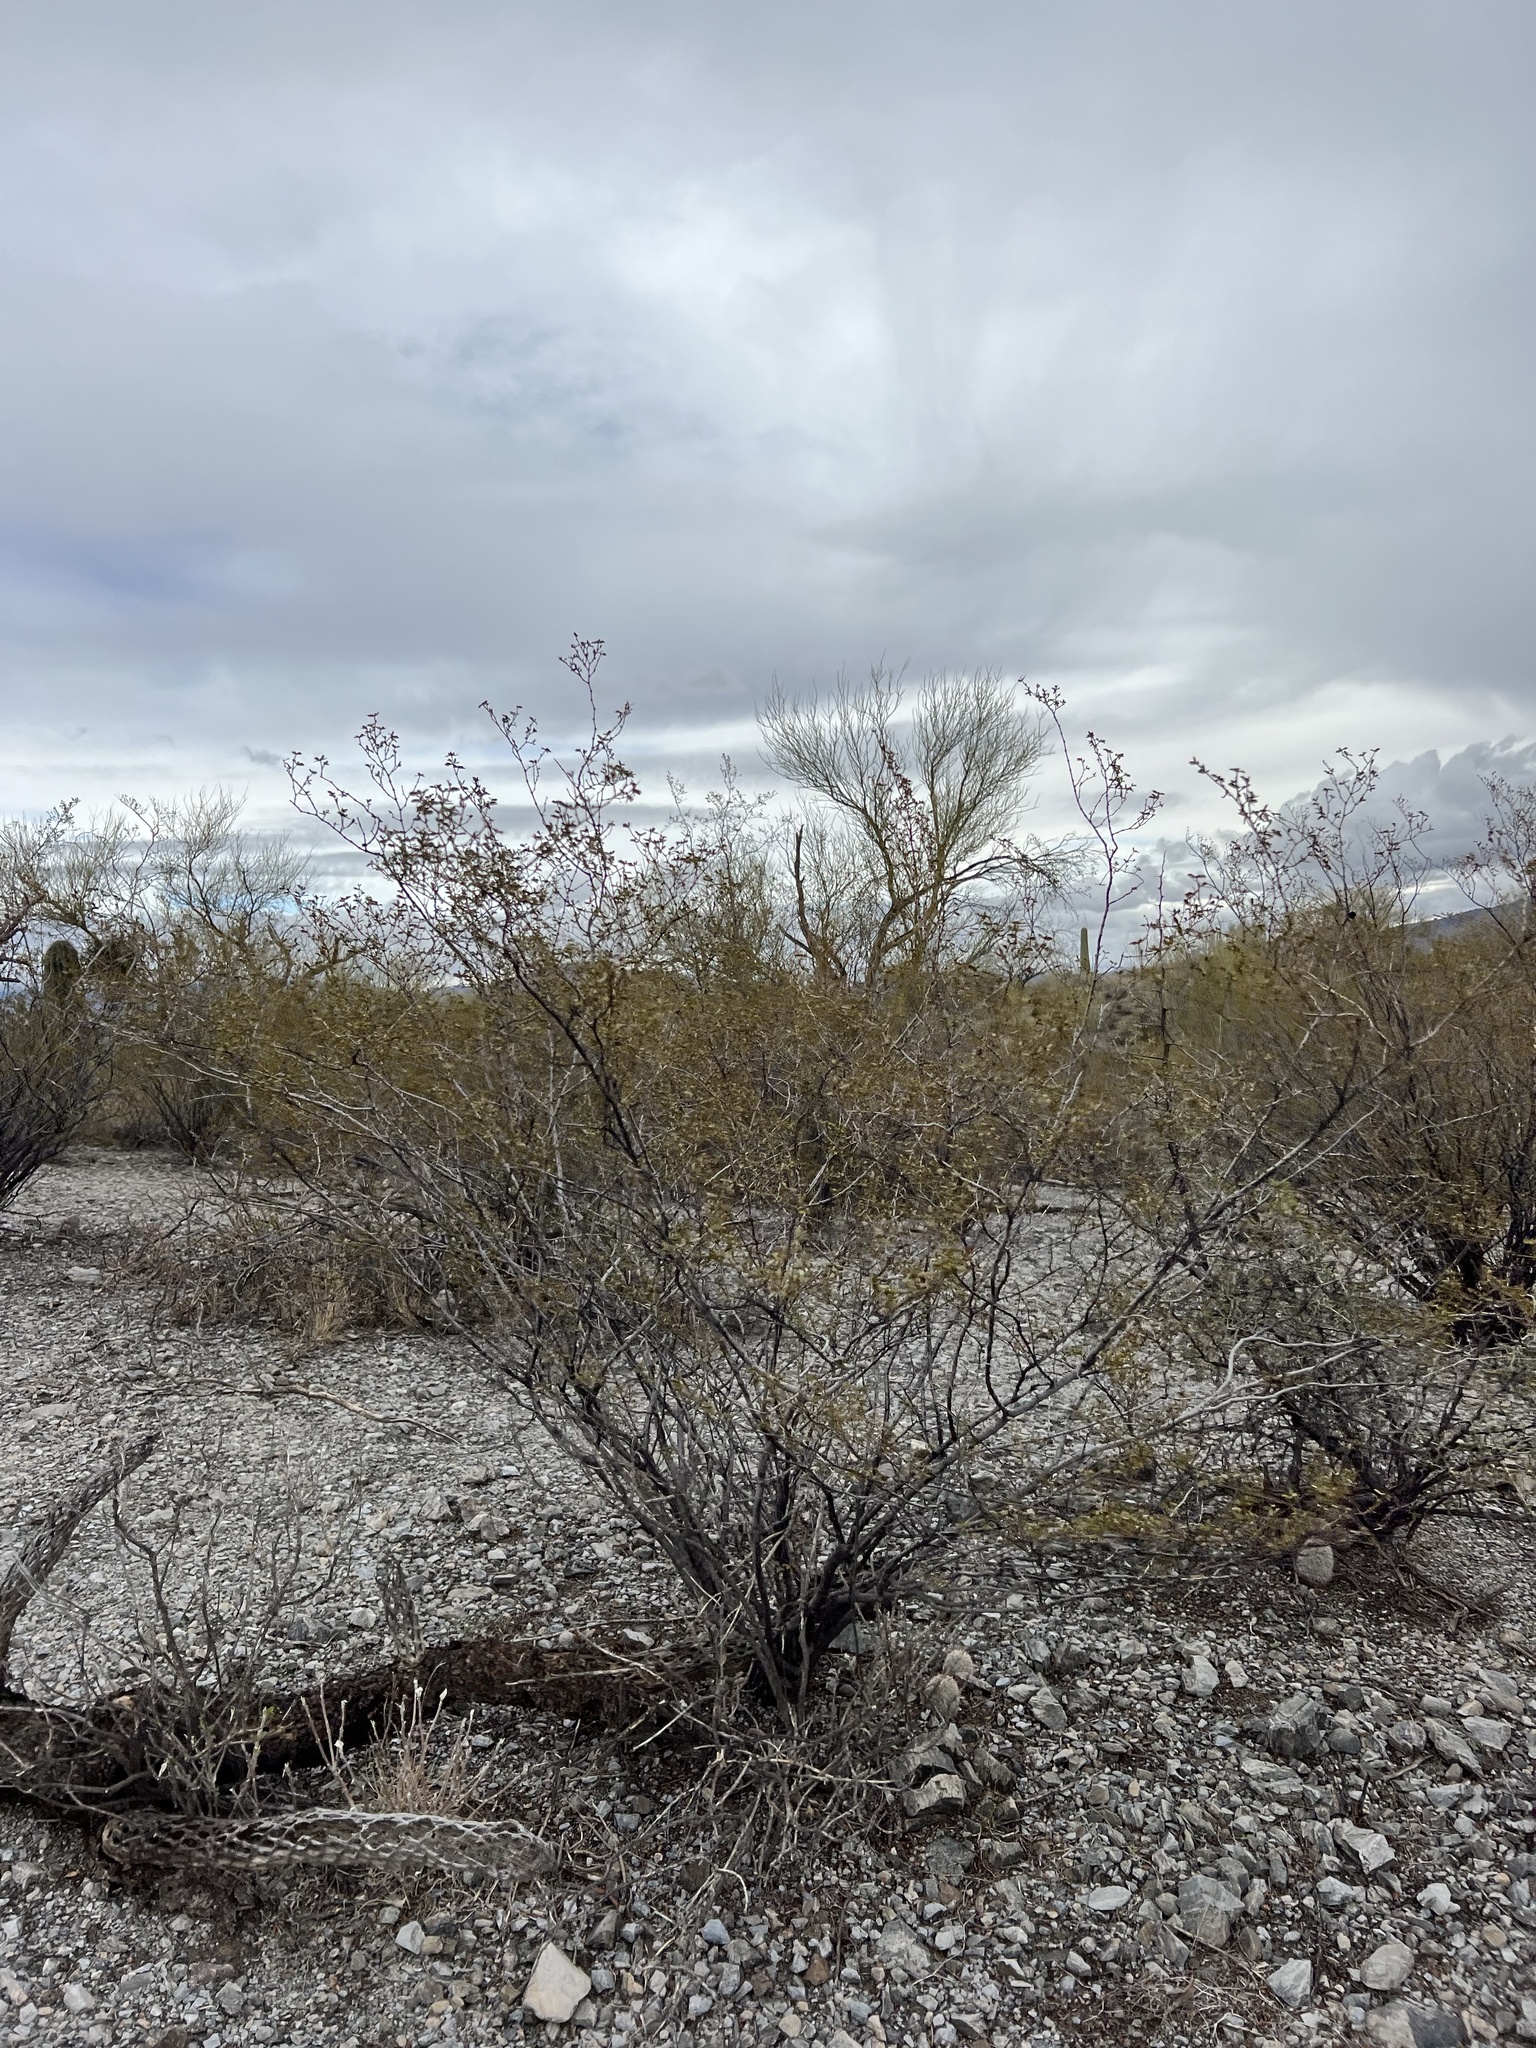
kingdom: Plantae
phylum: Tracheophyta
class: Magnoliopsida
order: Zygophyllales
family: Zygophyllaceae
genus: Larrea
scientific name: Larrea tridentata
